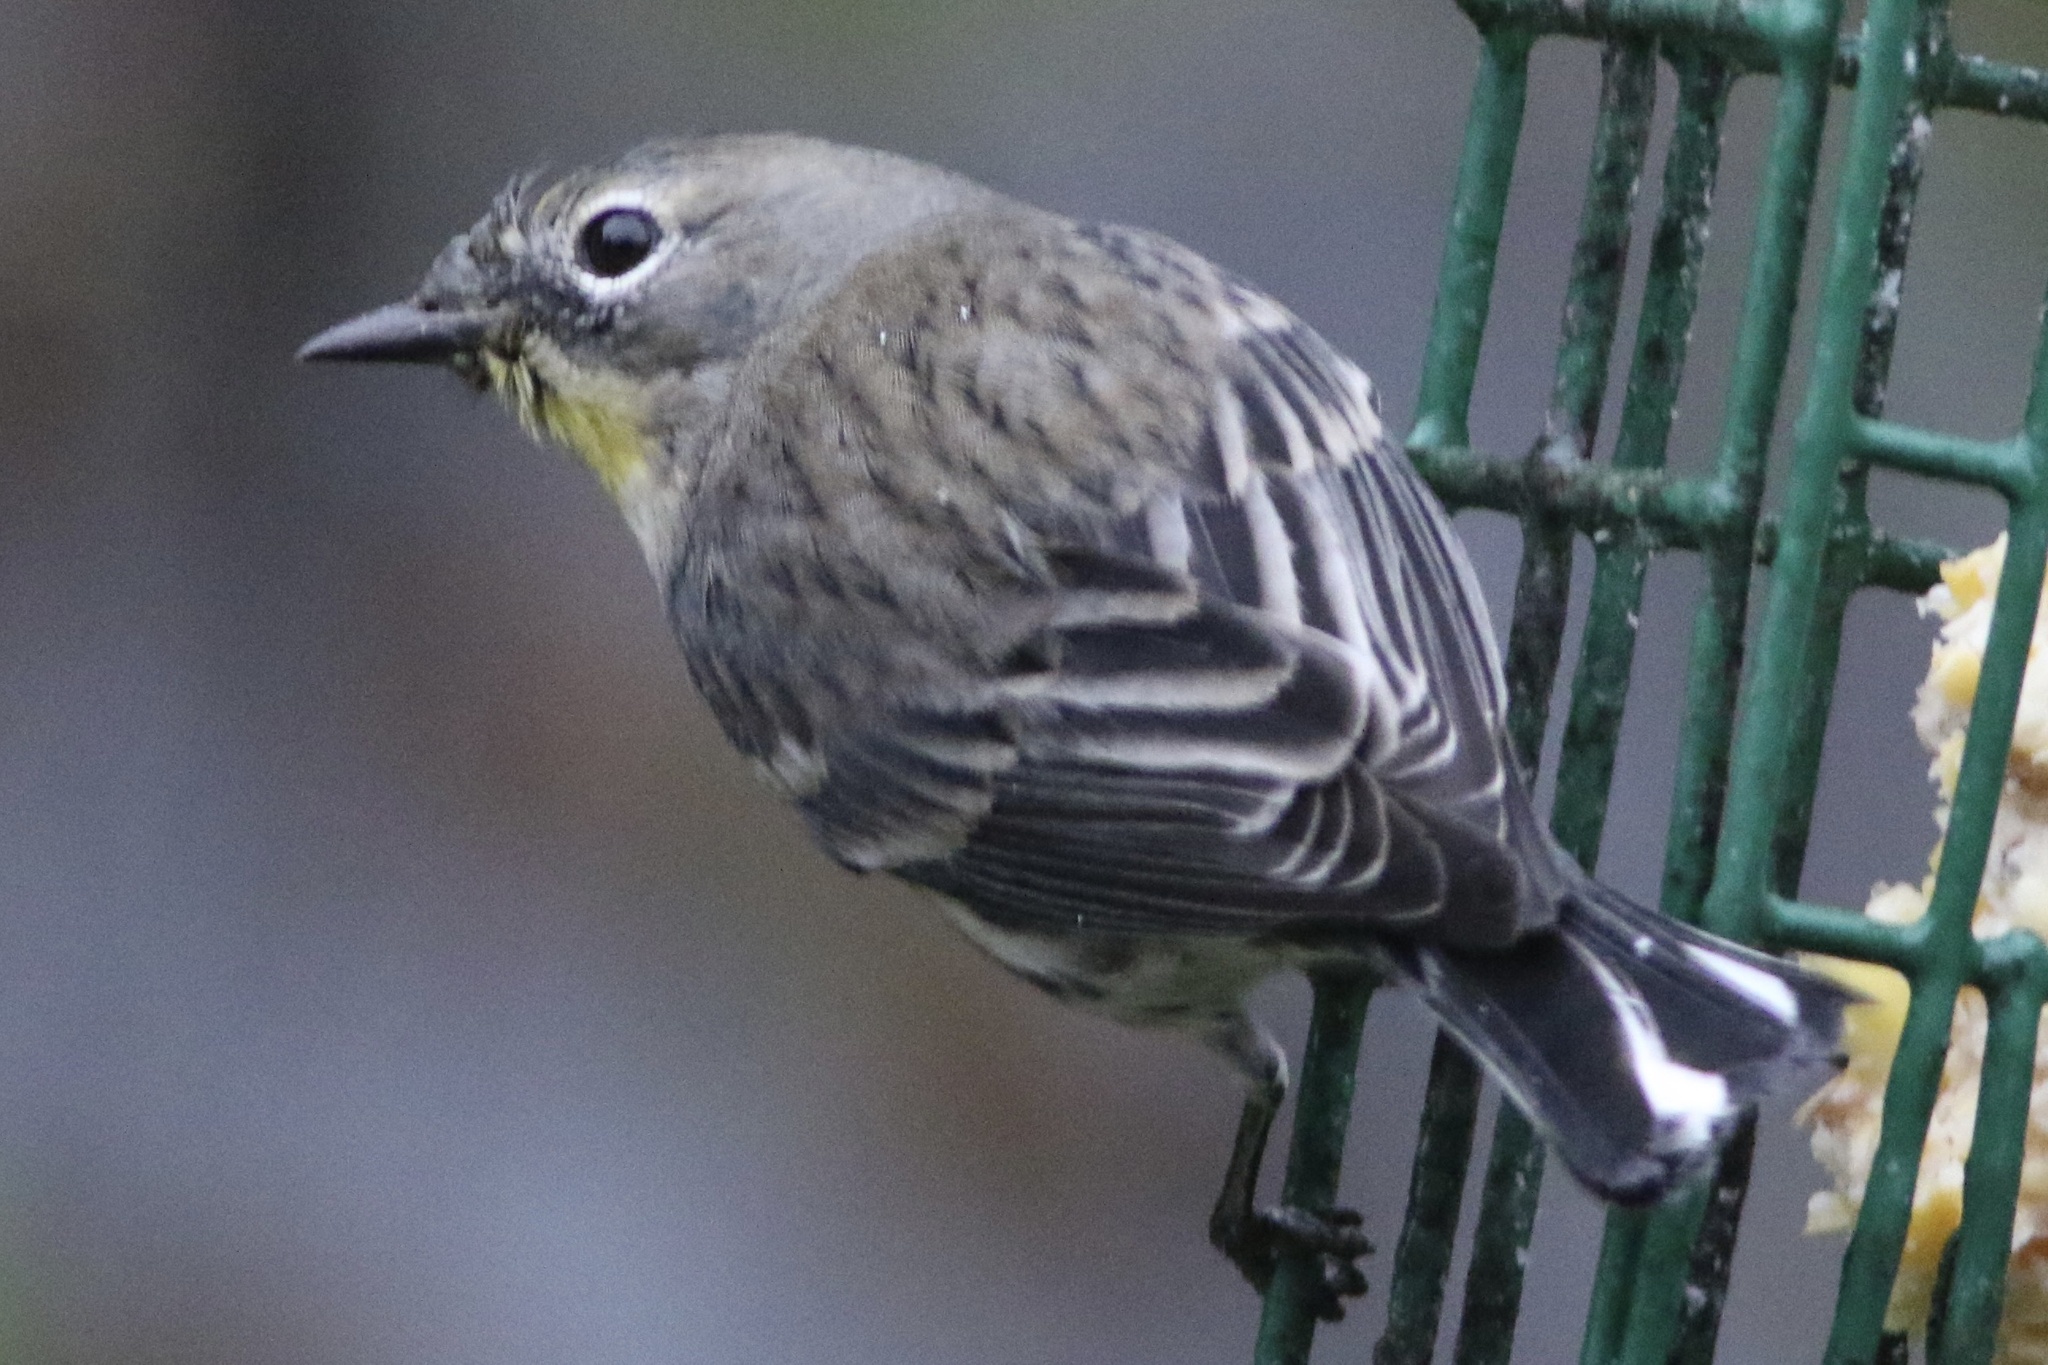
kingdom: Animalia
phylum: Chordata
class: Aves
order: Passeriformes
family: Parulidae
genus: Setophaga
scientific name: Setophaga coronata
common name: Myrtle warbler
